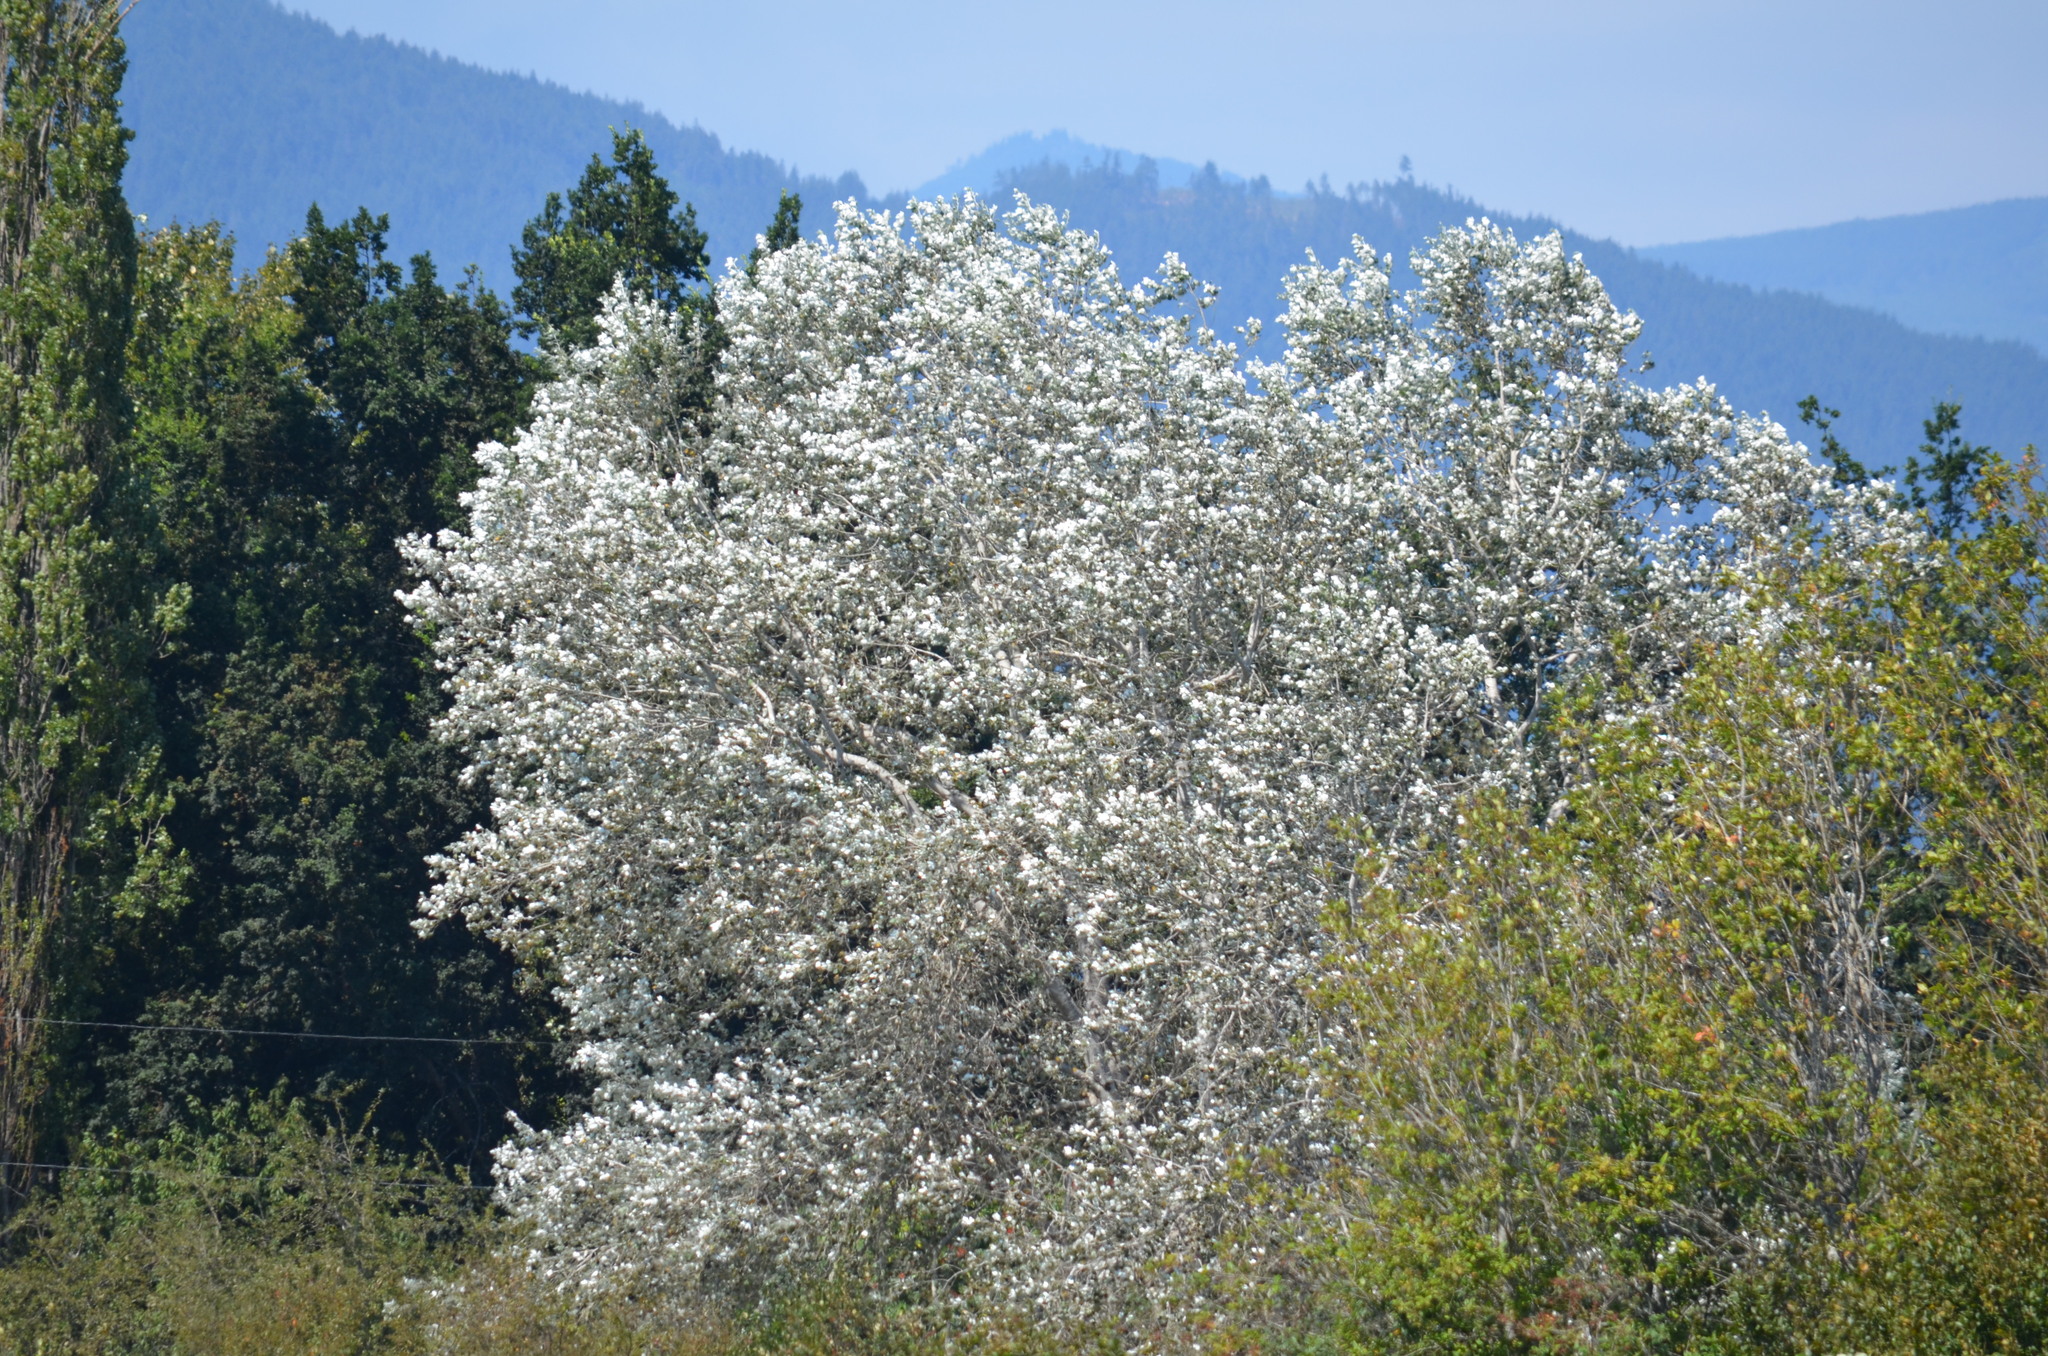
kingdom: Plantae
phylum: Tracheophyta
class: Magnoliopsida
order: Malpighiales
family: Salicaceae
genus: Populus
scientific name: Populus alba
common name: White poplar
